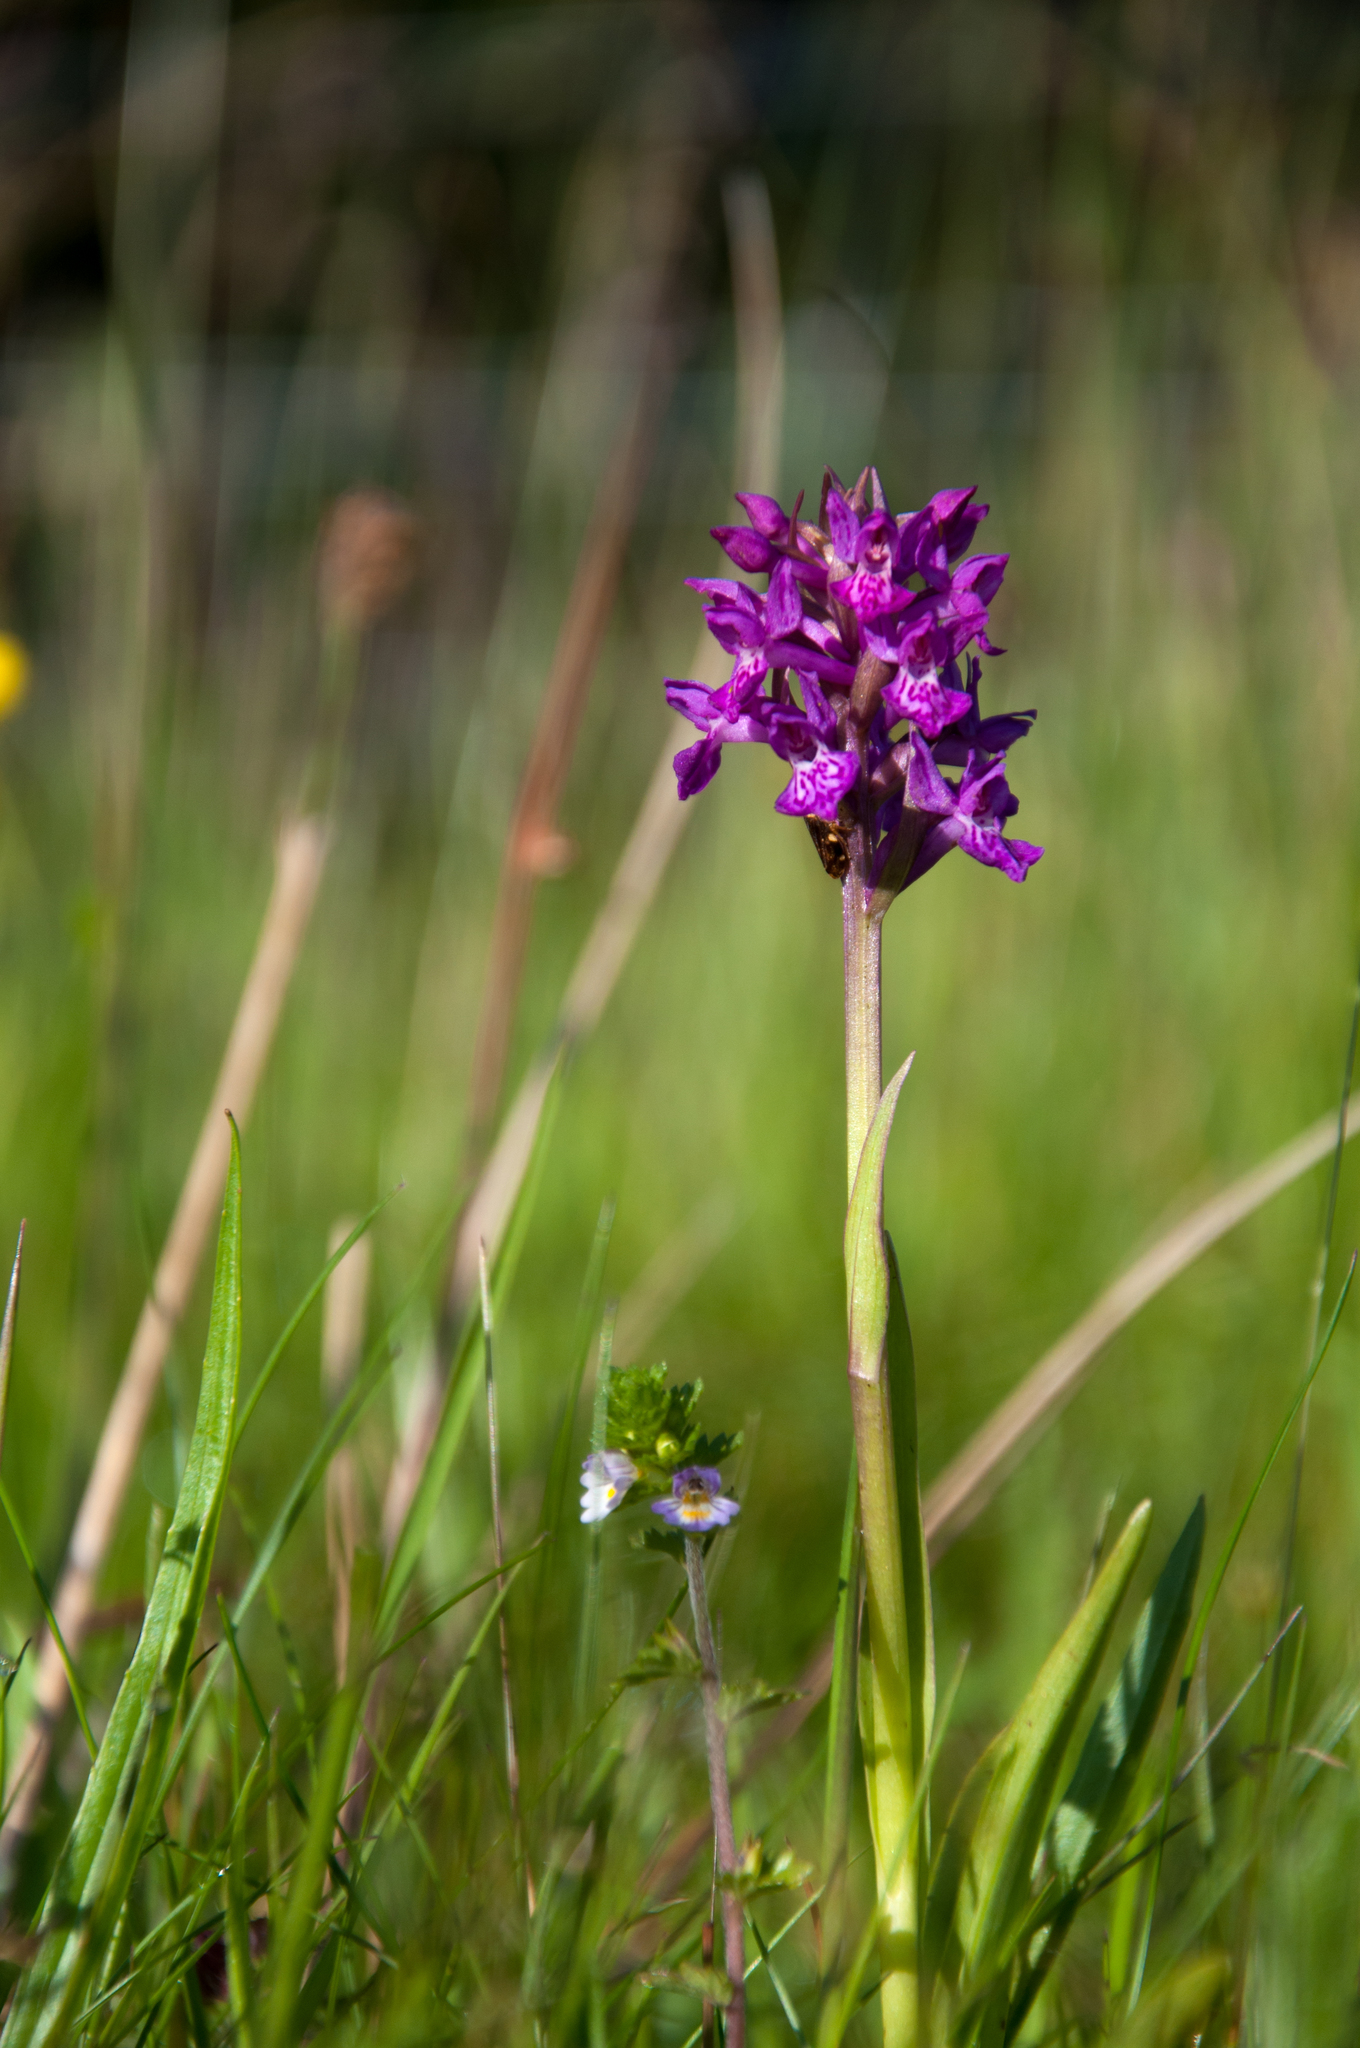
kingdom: Plantae
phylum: Tracheophyta
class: Liliopsida
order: Asparagales
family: Orchidaceae
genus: Dactylorhiza
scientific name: Dactylorhiza majalis
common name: Marsh orchid
